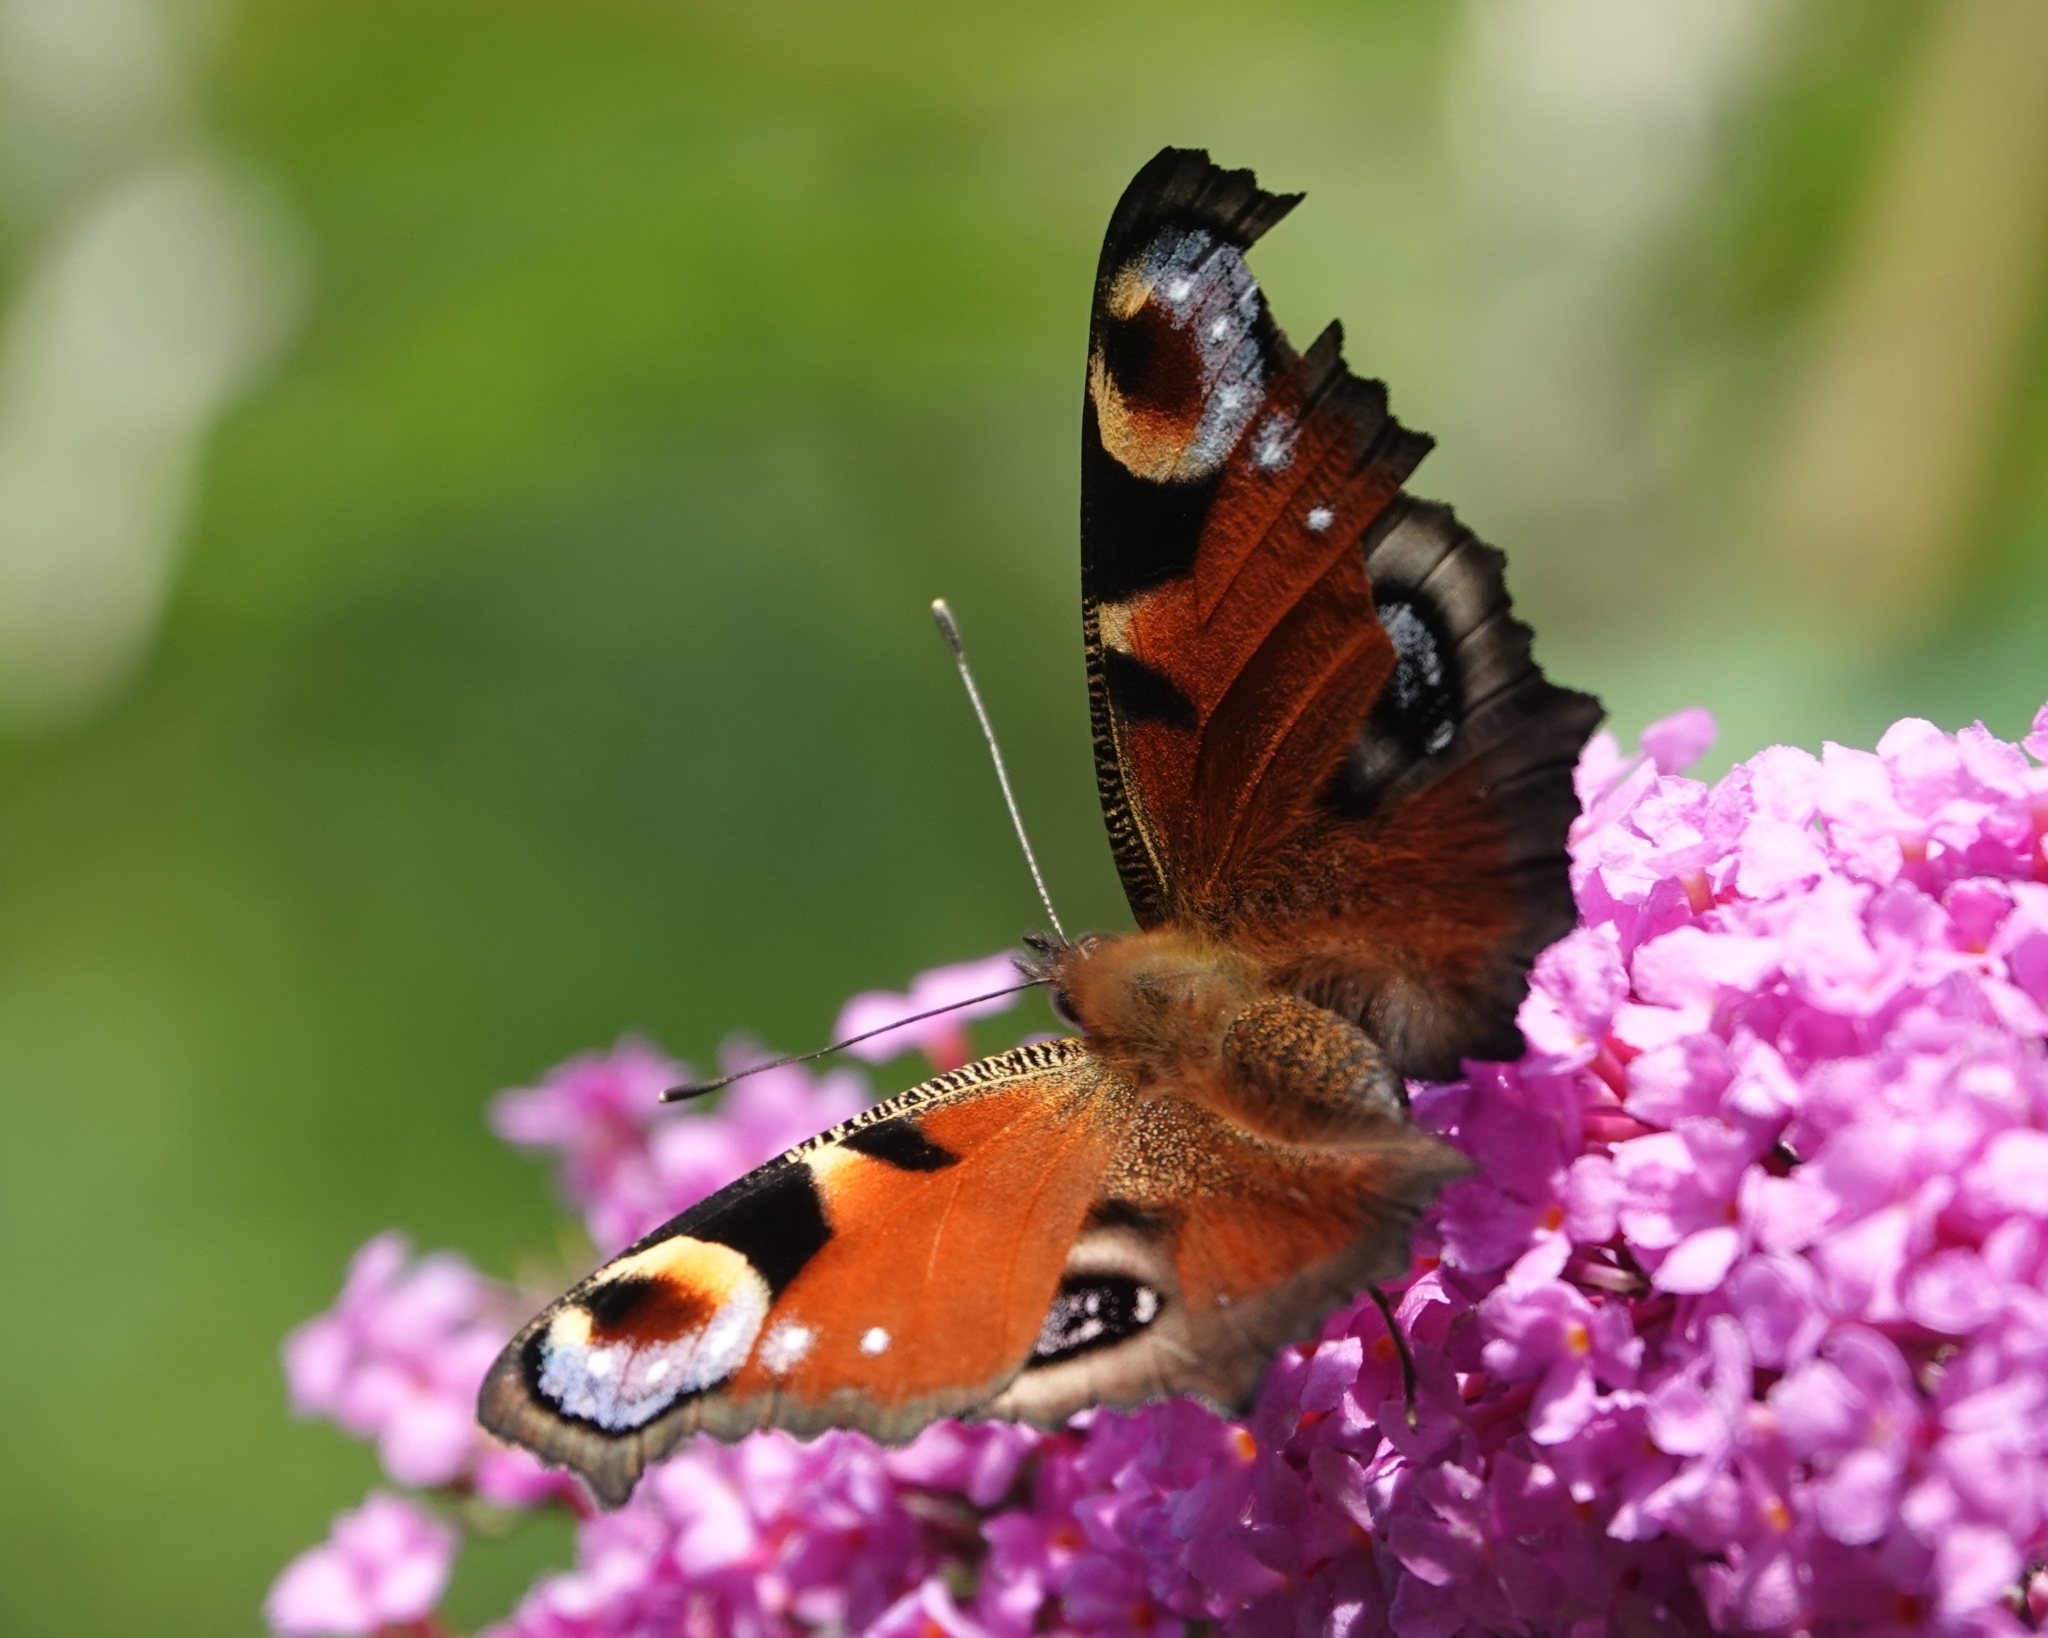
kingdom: Animalia
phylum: Arthropoda
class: Insecta
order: Lepidoptera
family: Nymphalidae
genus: Aglais
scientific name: Aglais io
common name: Peacock
